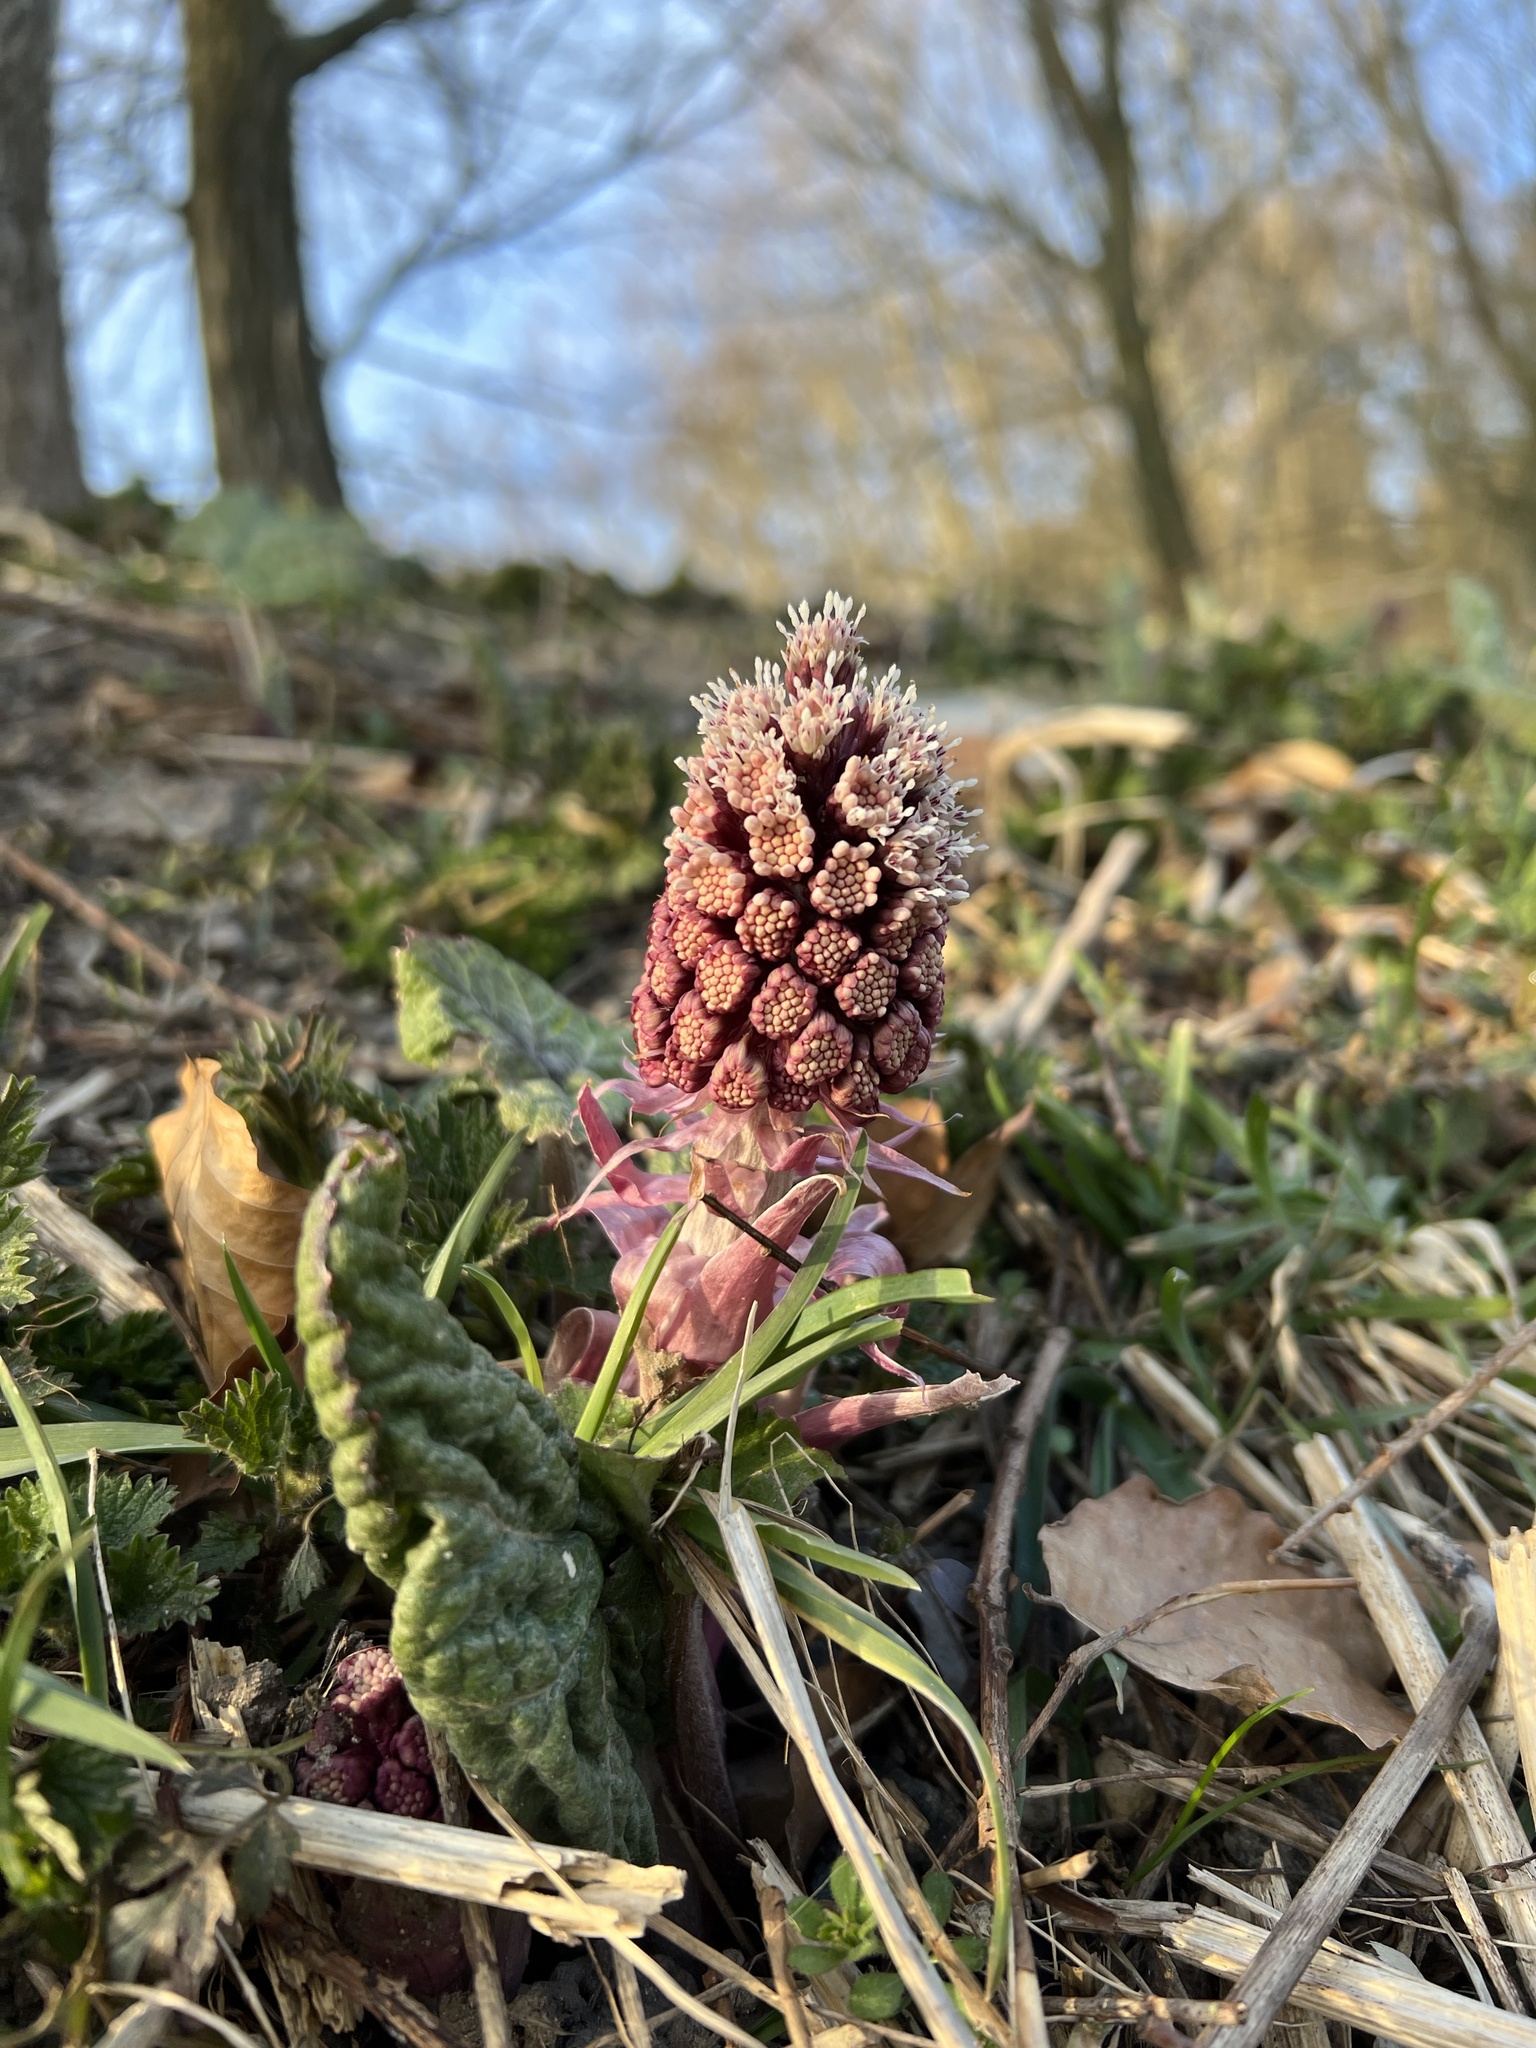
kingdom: Plantae
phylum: Tracheophyta
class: Magnoliopsida
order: Asterales
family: Asteraceae
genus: Petasites
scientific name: Petasites hybridus
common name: Butterbur
